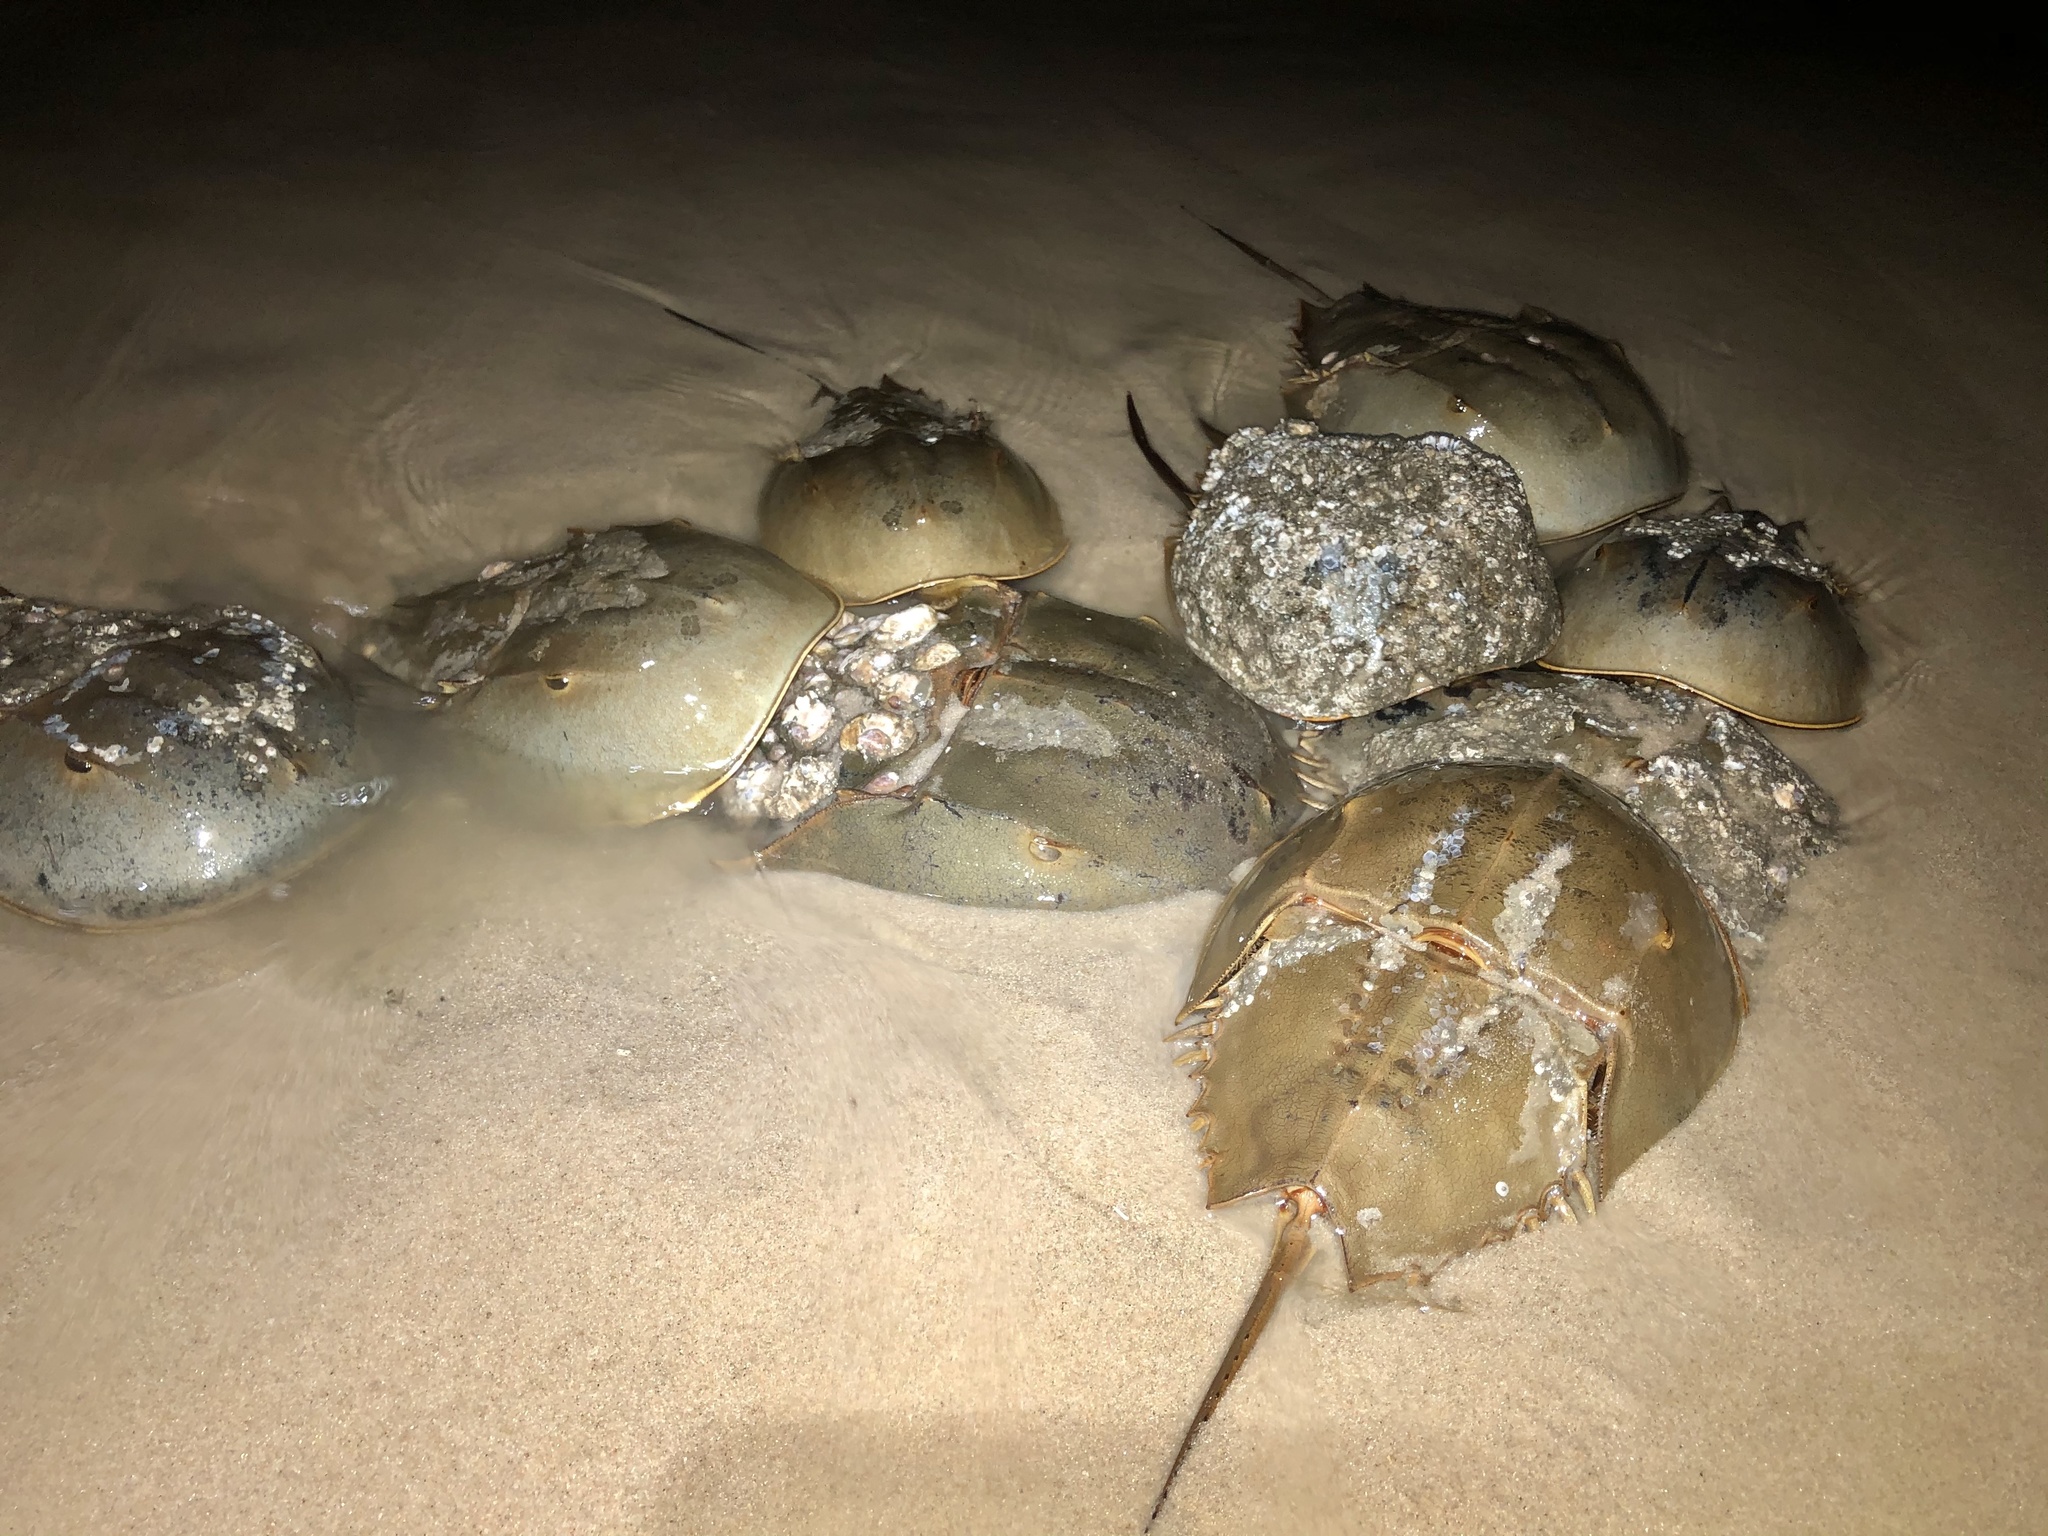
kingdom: Animalia
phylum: Arthropoda
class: Merostomata
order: Xiphosurida
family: Limulidae
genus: Limulus
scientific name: Limulus polyphemus
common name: Horseshoe crab
